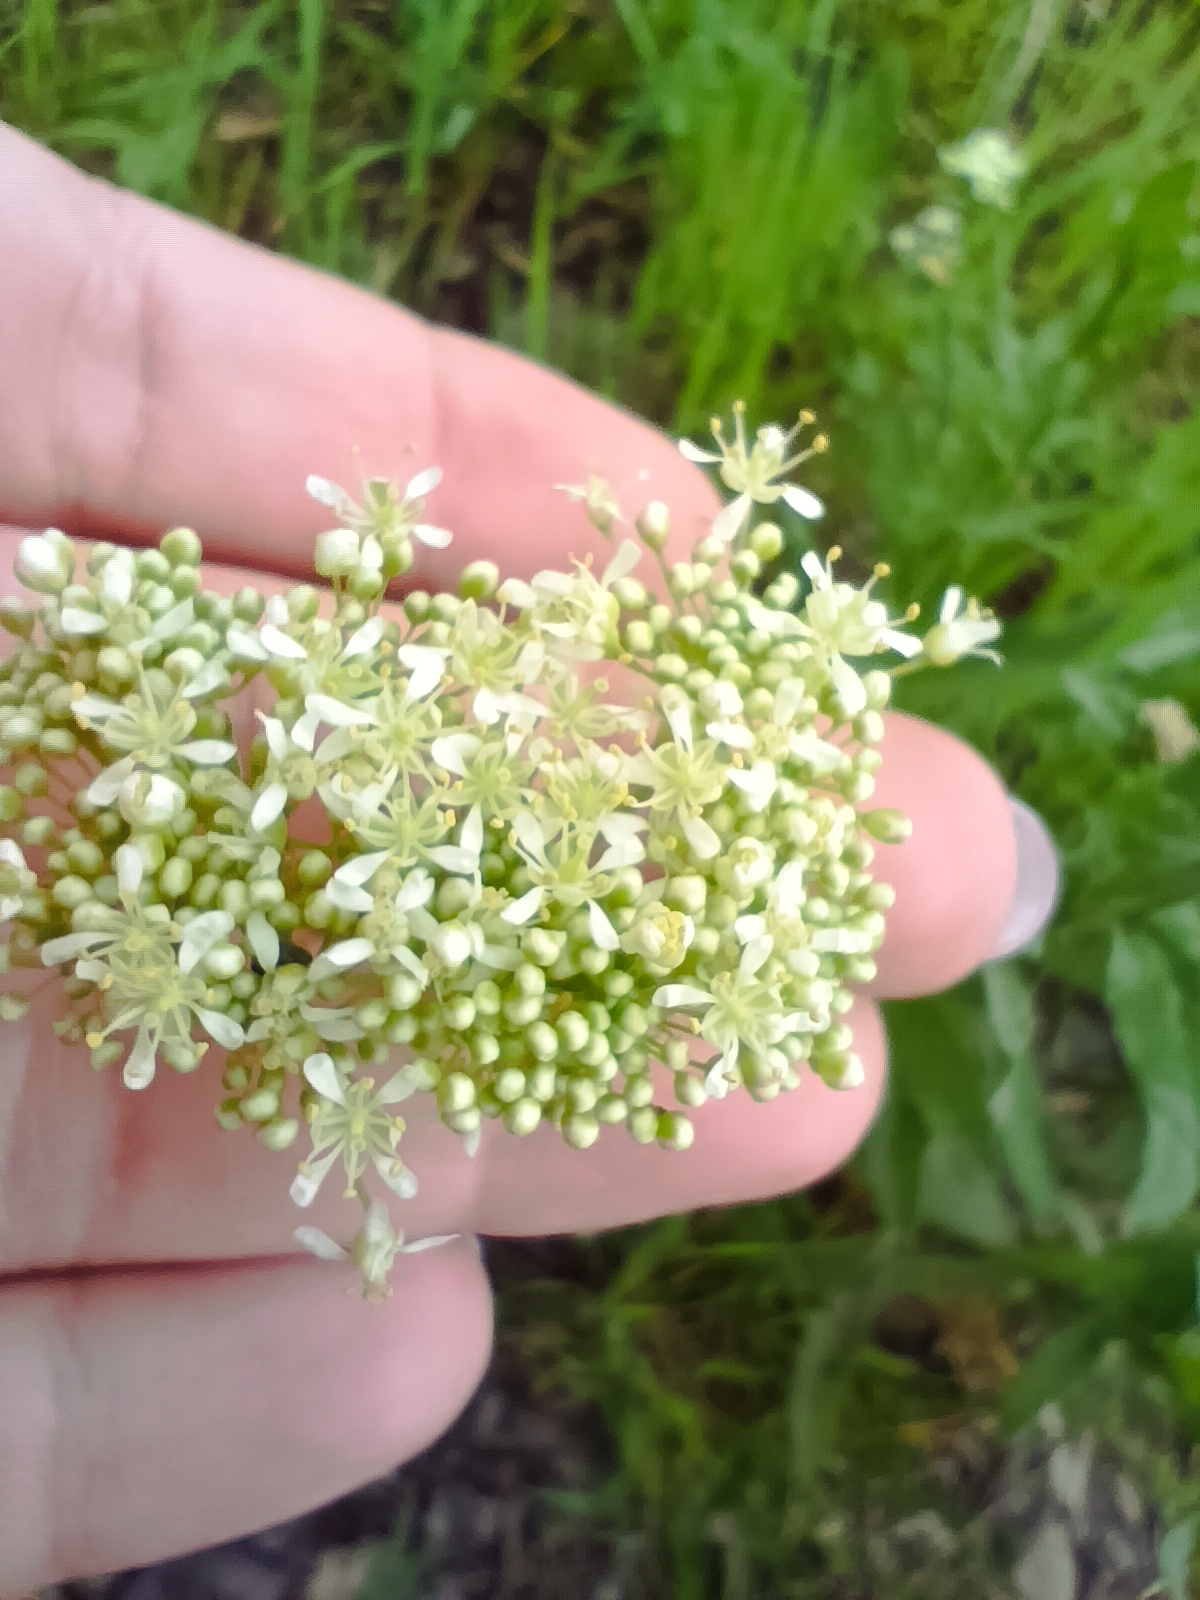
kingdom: Plantae
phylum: Tracheophyta
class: Magnoliopsida
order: Brassicales
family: Brassicaceae
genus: Lepidium
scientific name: Lepidium draba
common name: Hoary cress
